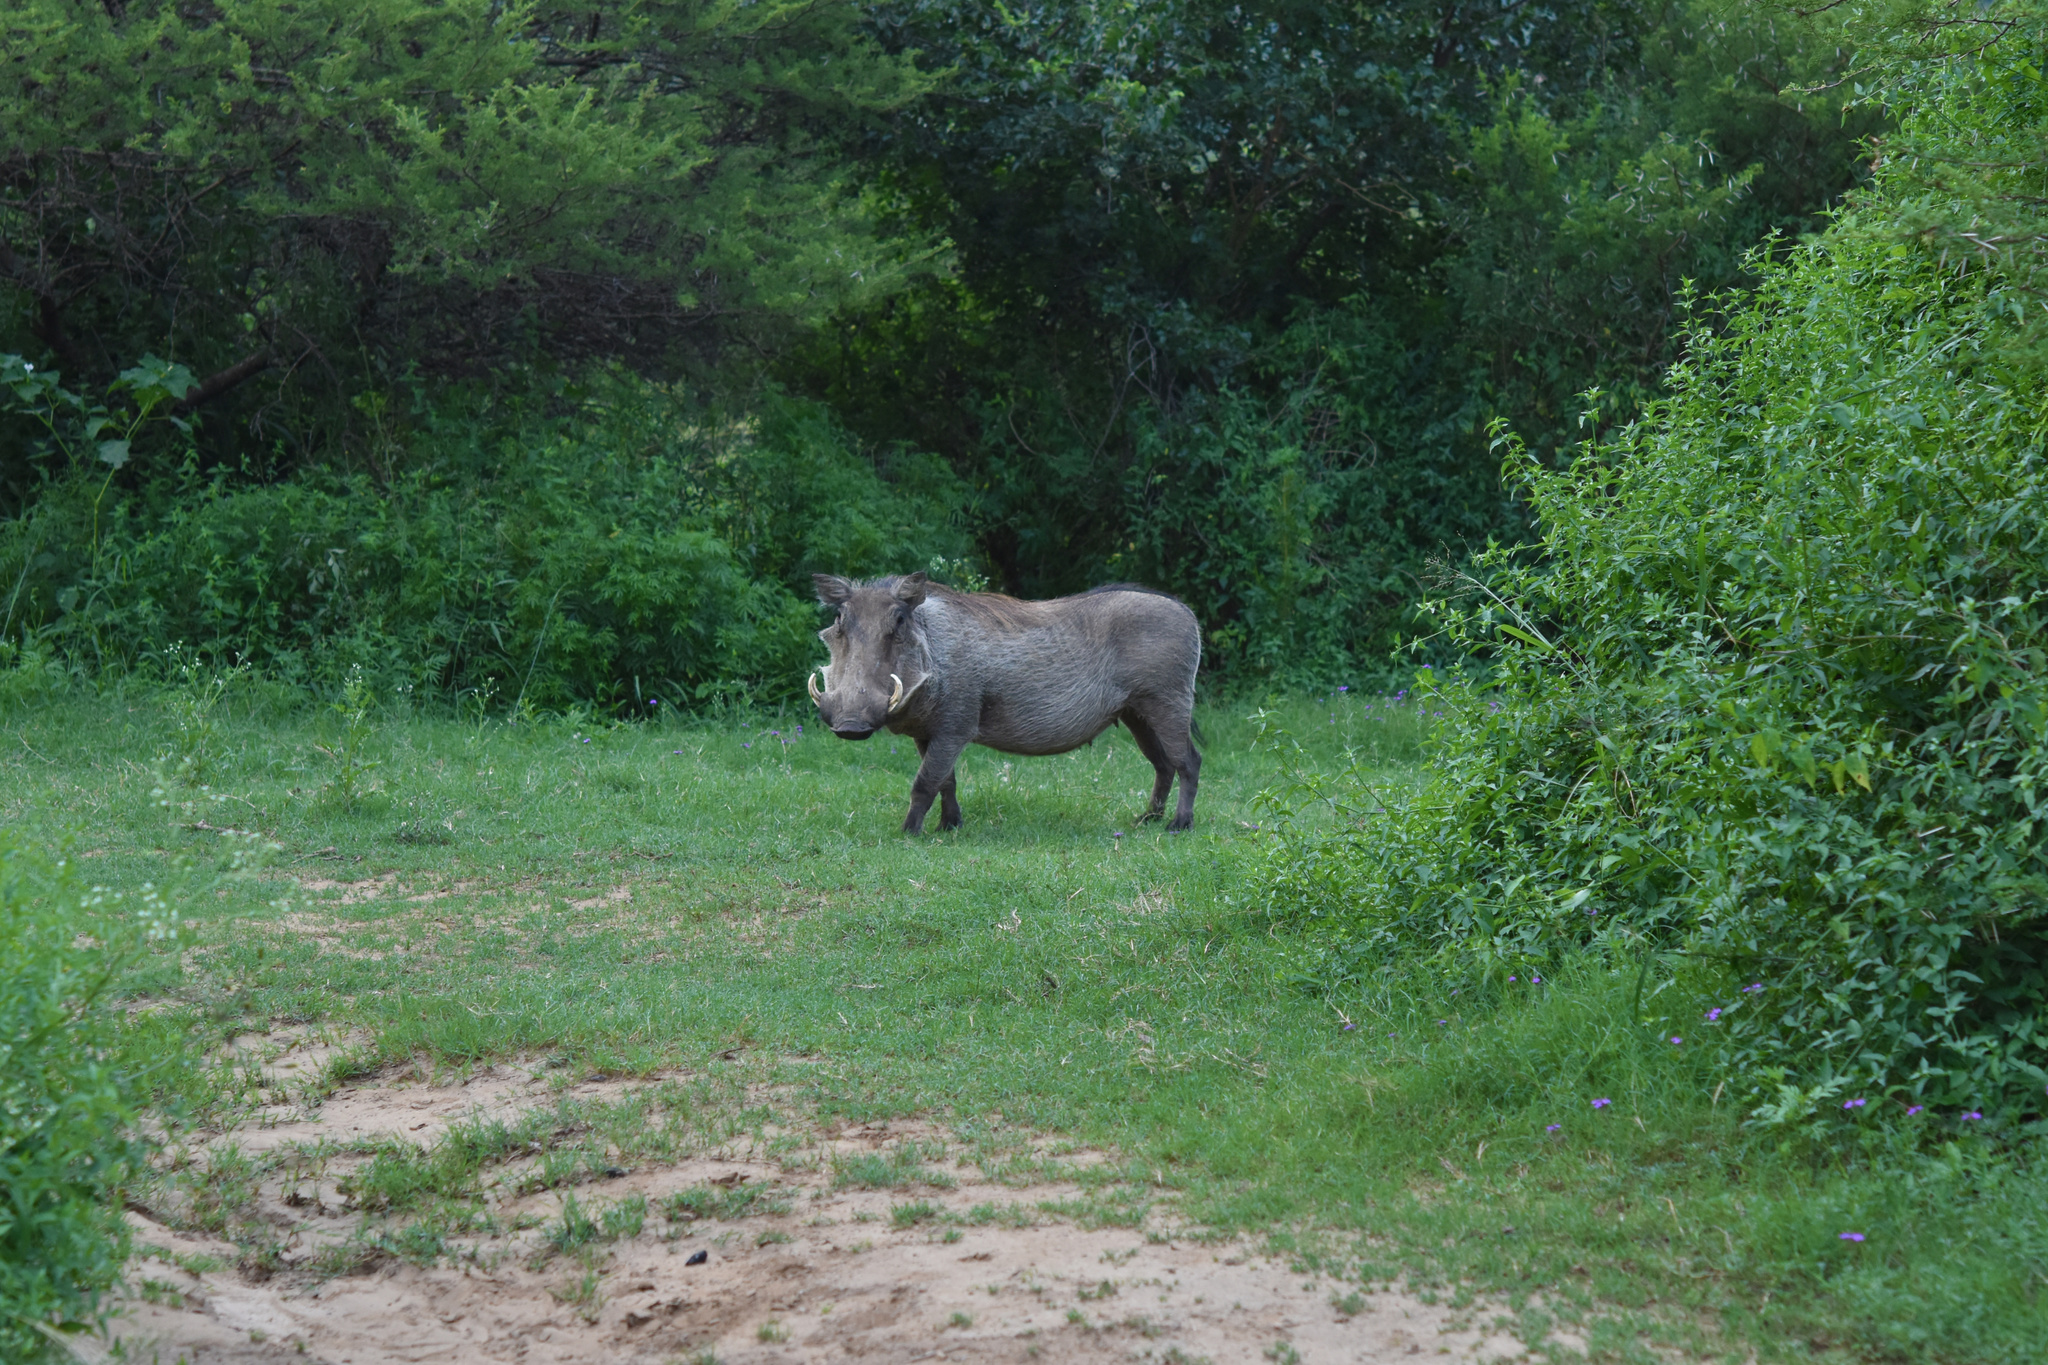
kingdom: Animalia
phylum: Chordata
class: Mammalia
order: Artiodactyla
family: Suidae
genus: Phacochoerus
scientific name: Phacochoerus africanus
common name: Common warthog
